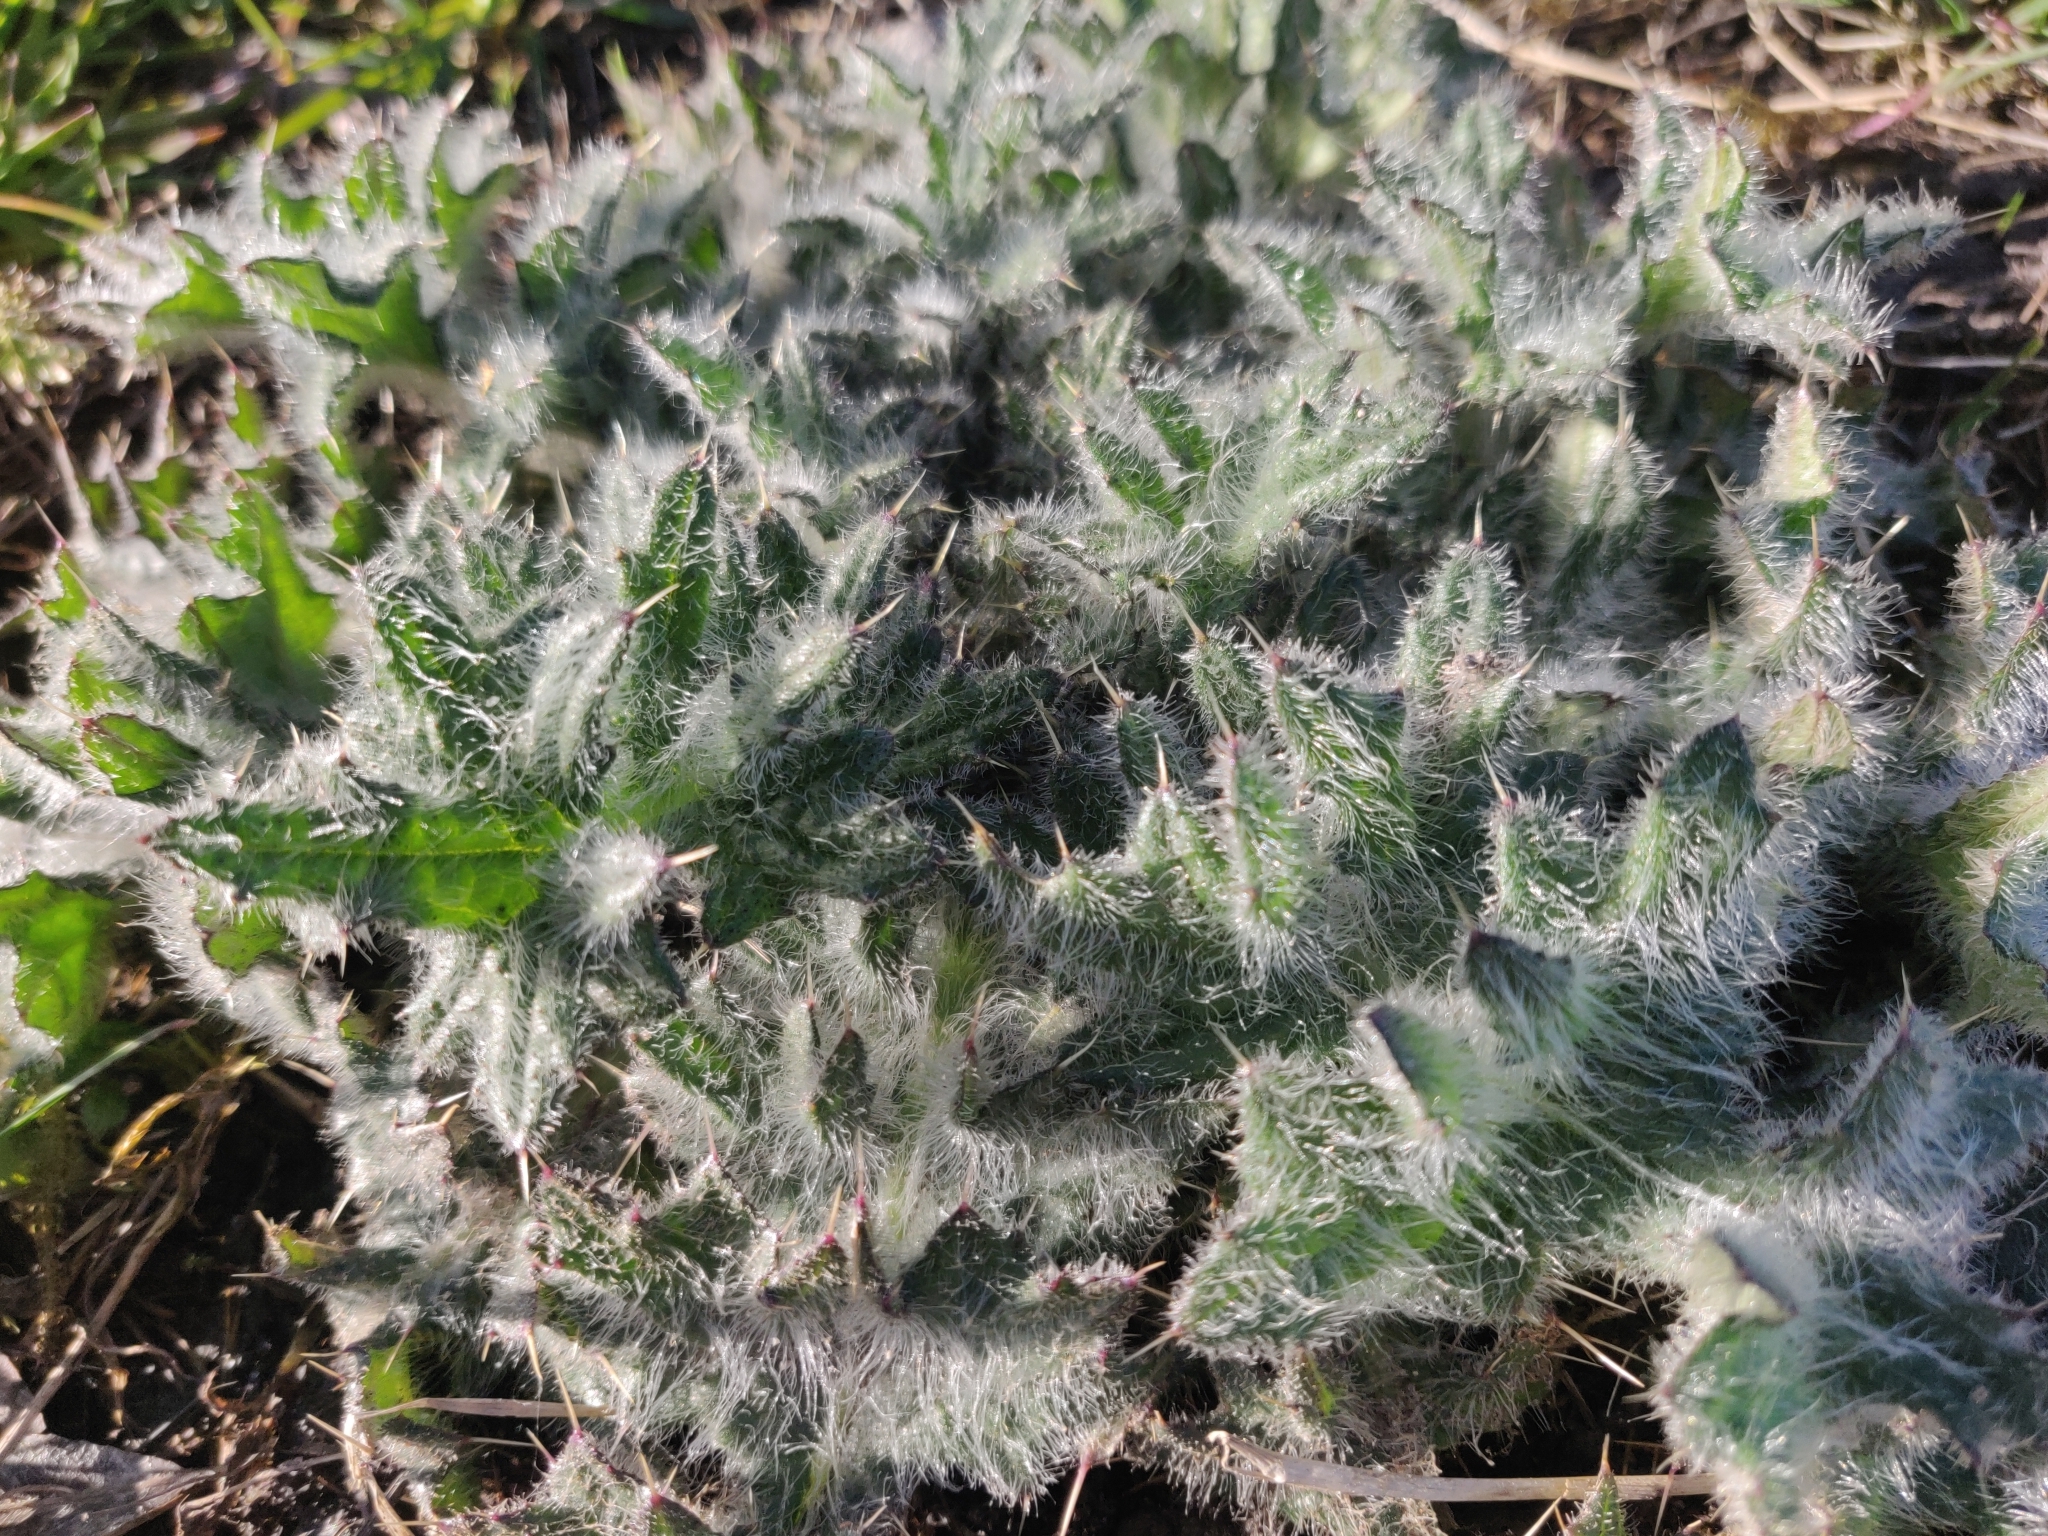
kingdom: Plantae
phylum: Tracheophyta
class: Magnoliopsida
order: Asterales
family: Asteraceae
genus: Cirsium
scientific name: Cirsium vulgare
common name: Bull thistle
